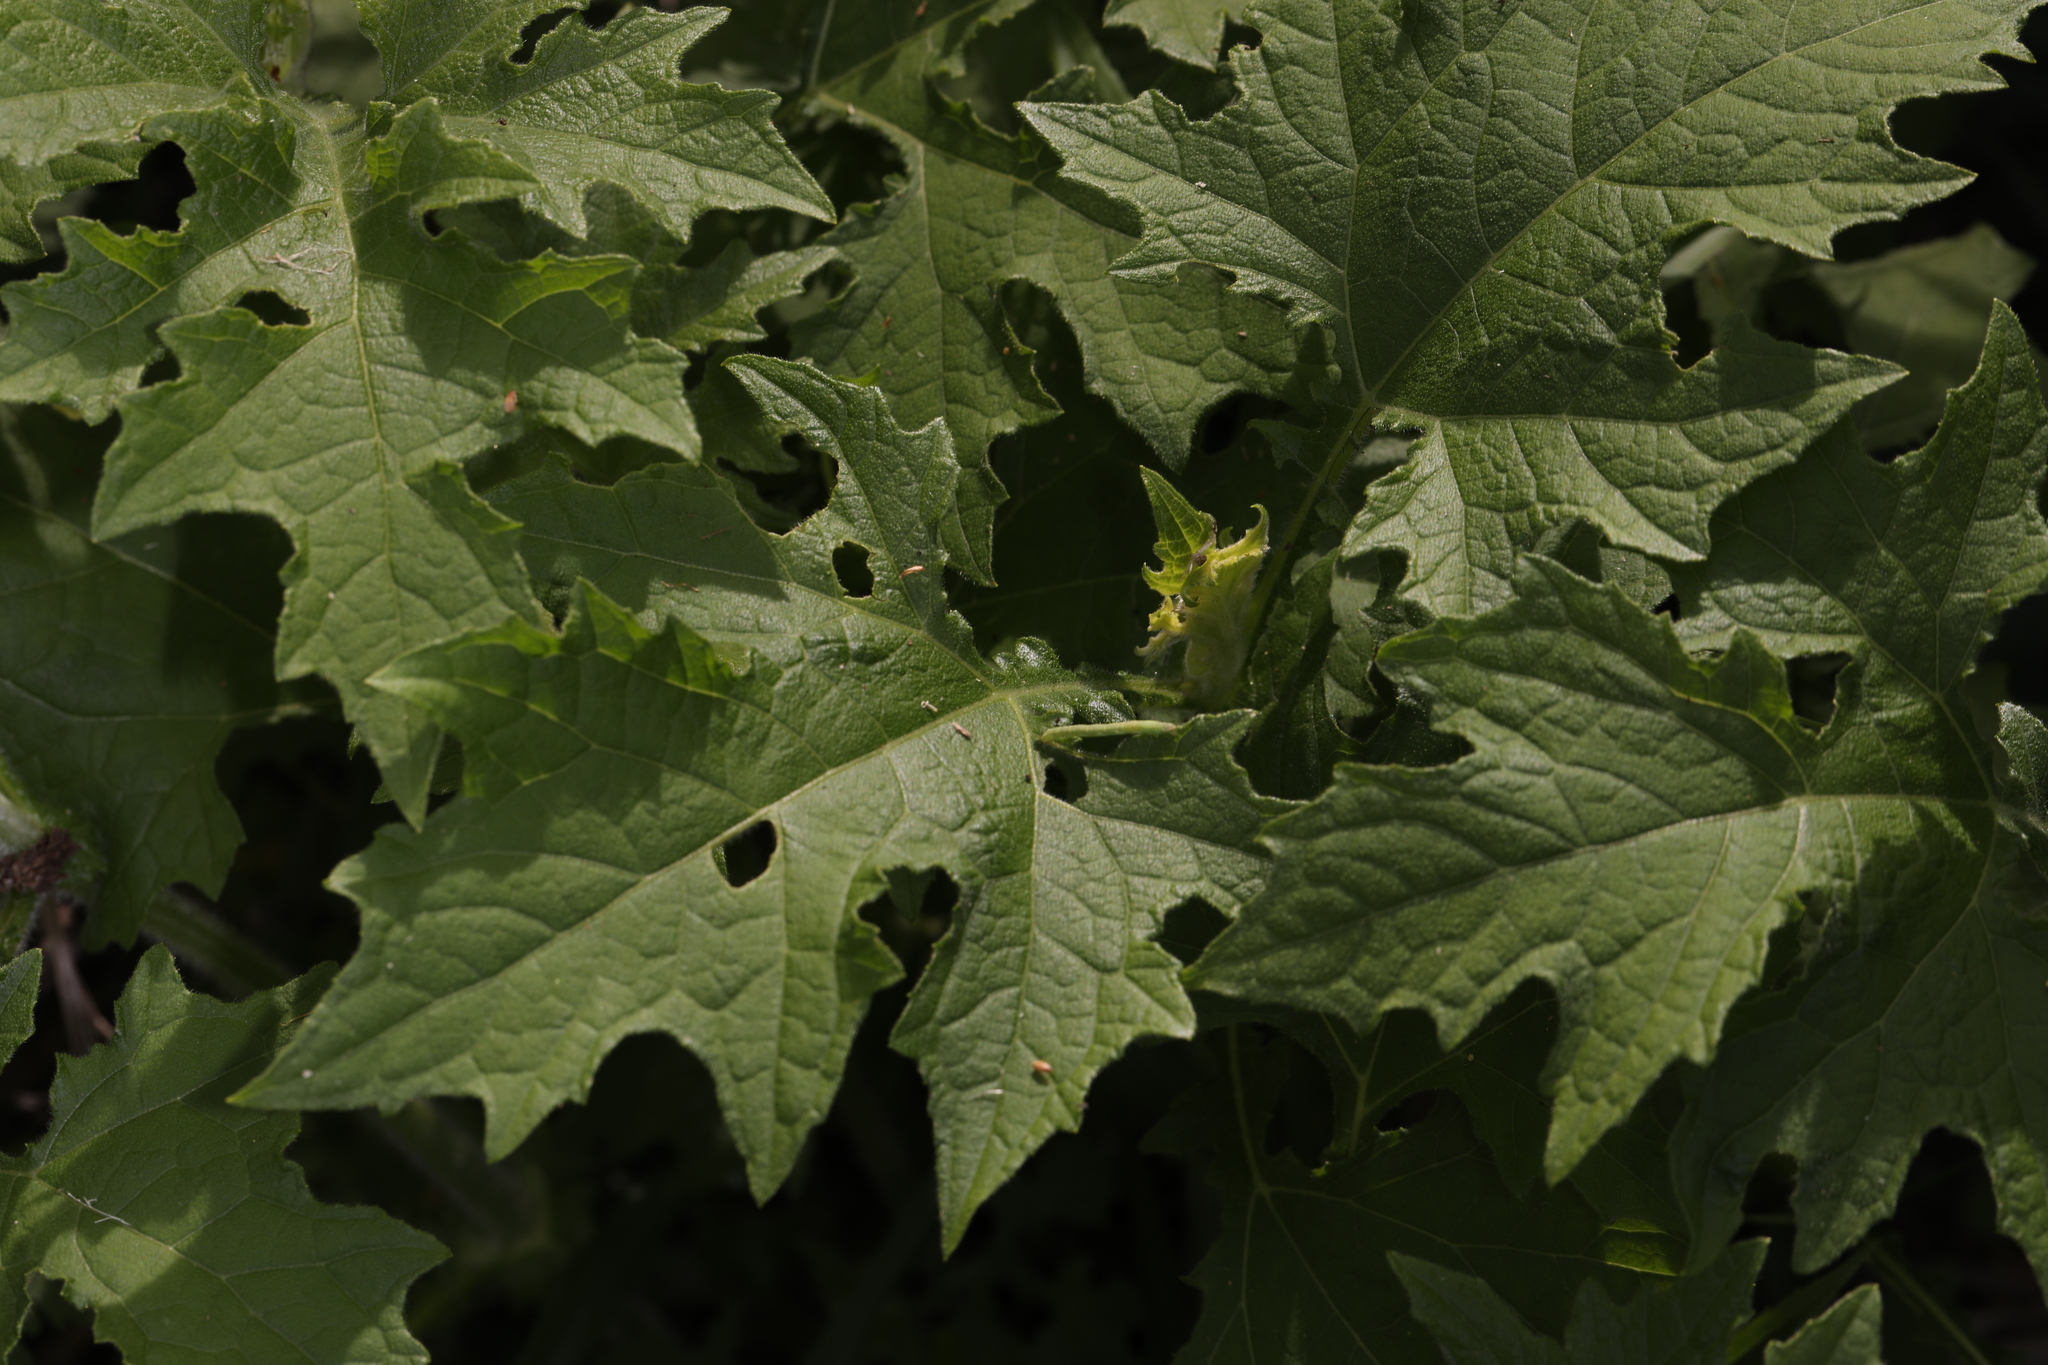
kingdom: Plantae
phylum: Tracheophyta
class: Magnoliopsida
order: Asterales
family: Asteraceae
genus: Smallanthus
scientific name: Smallanthus uvedalia
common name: Bear's-foot
